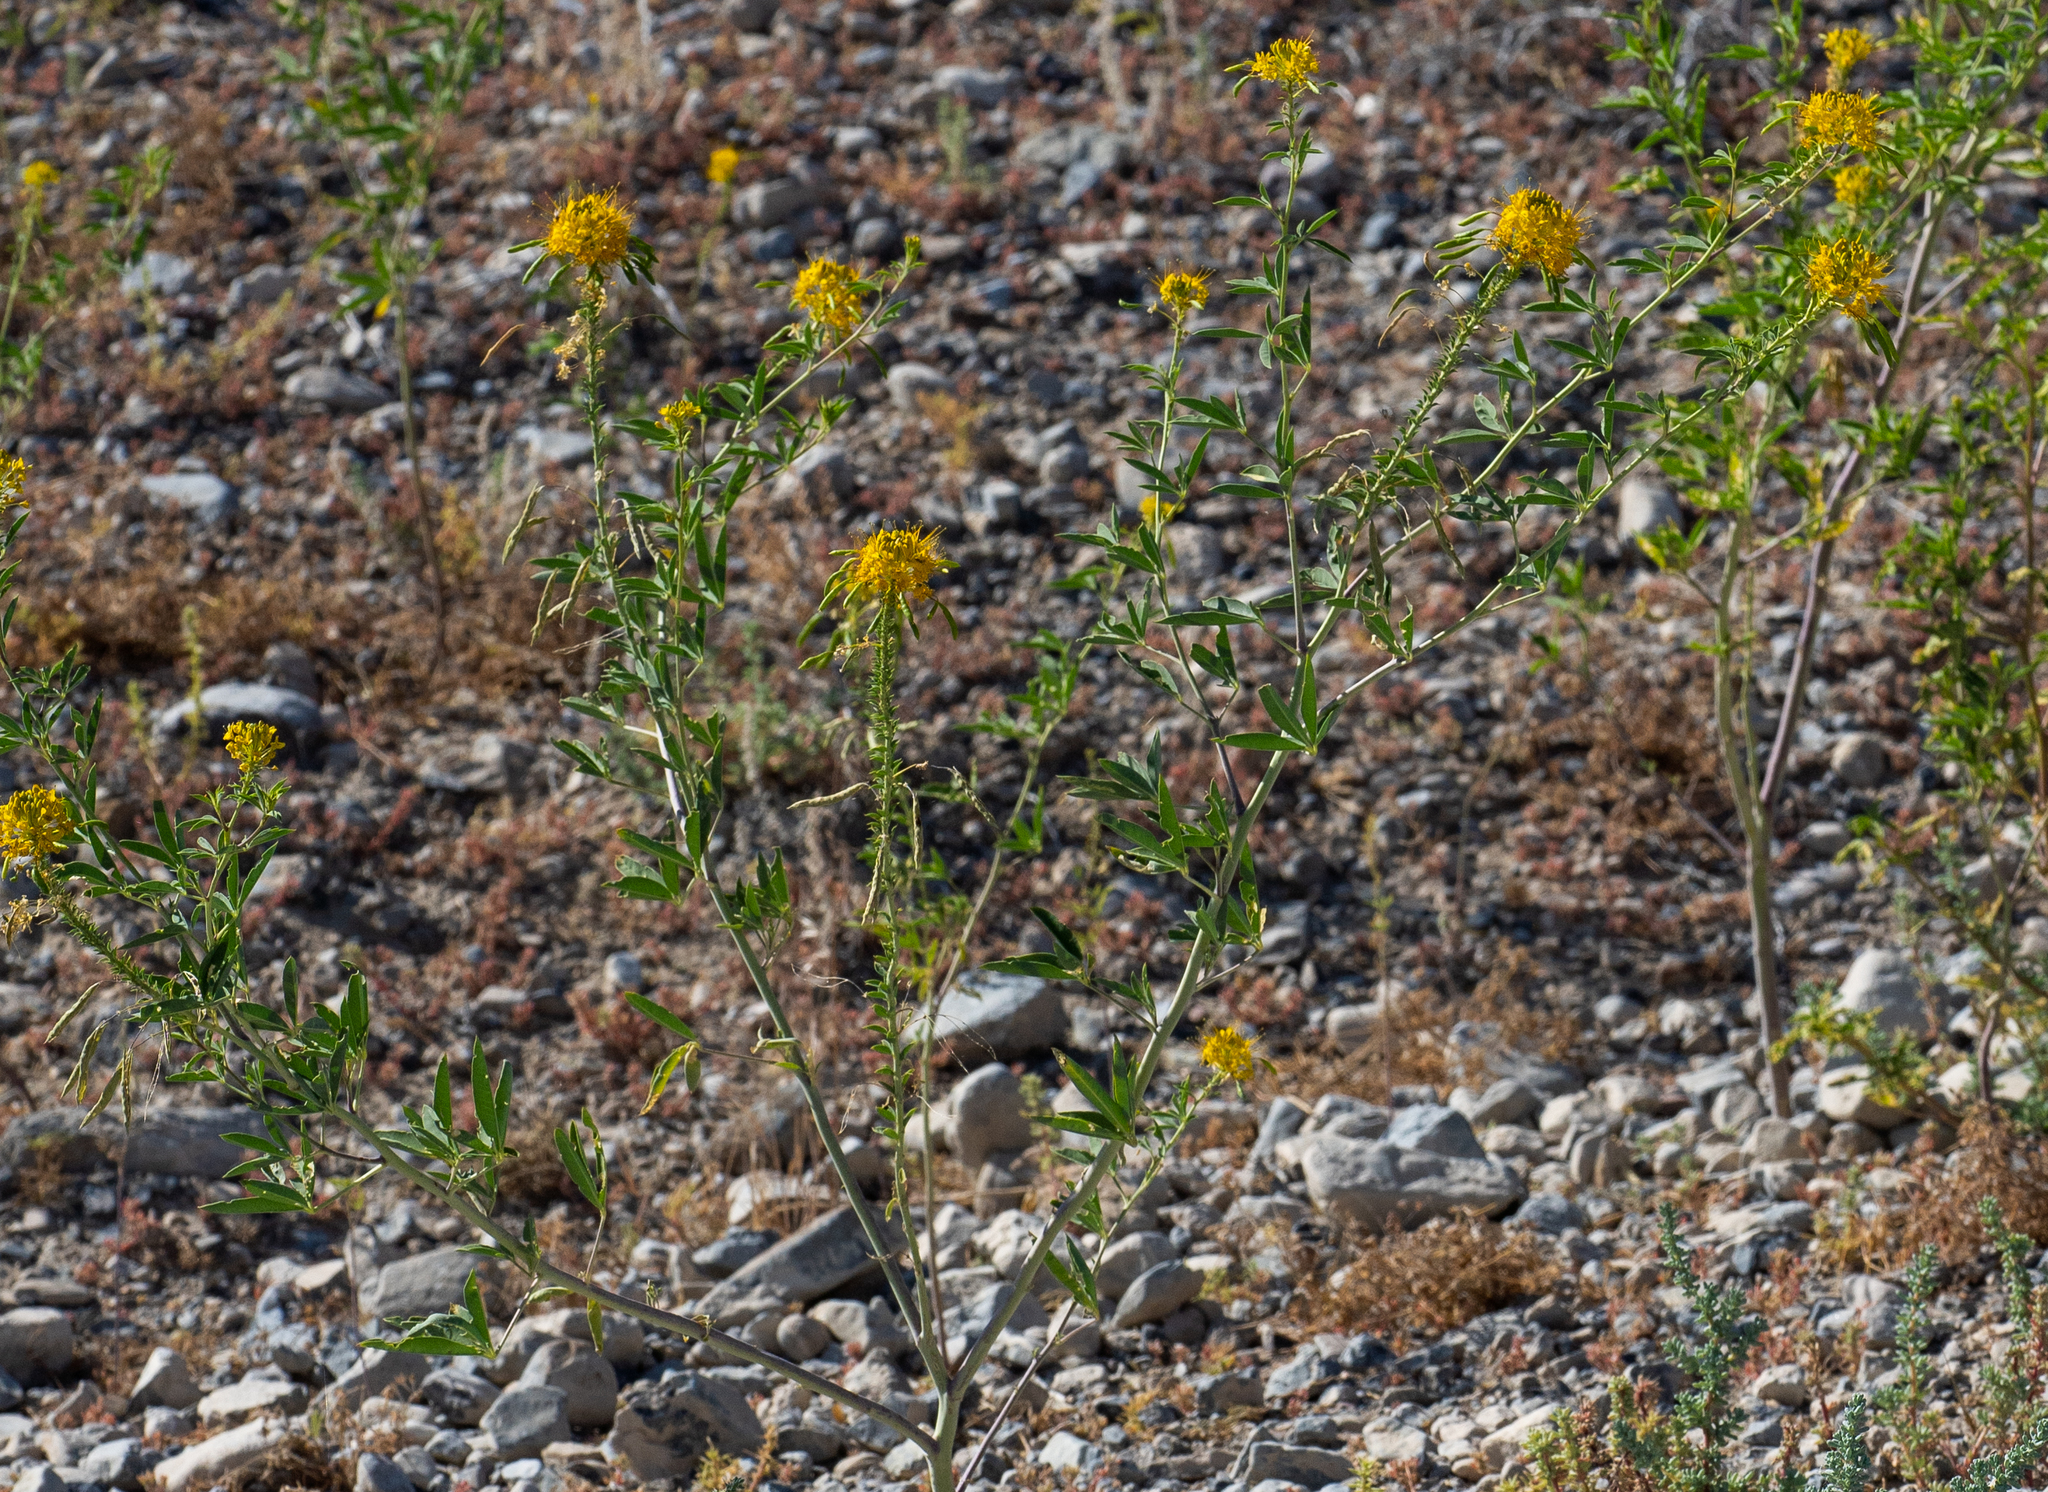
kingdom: Plantae
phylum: Tracheophyta
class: Magnoliopsida
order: Brassicales
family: Cleomaceae
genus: Cleomella
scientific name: Cleomella lutea
